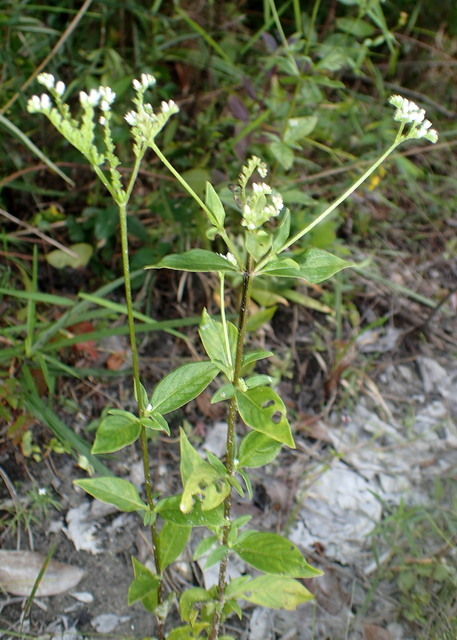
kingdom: Plantae
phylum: Tracheophyta
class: Magnoliopsida
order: Gentianales
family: Loganiaceae
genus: Mitreola
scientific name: Mitreola petiolata
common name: Lax hornpod
